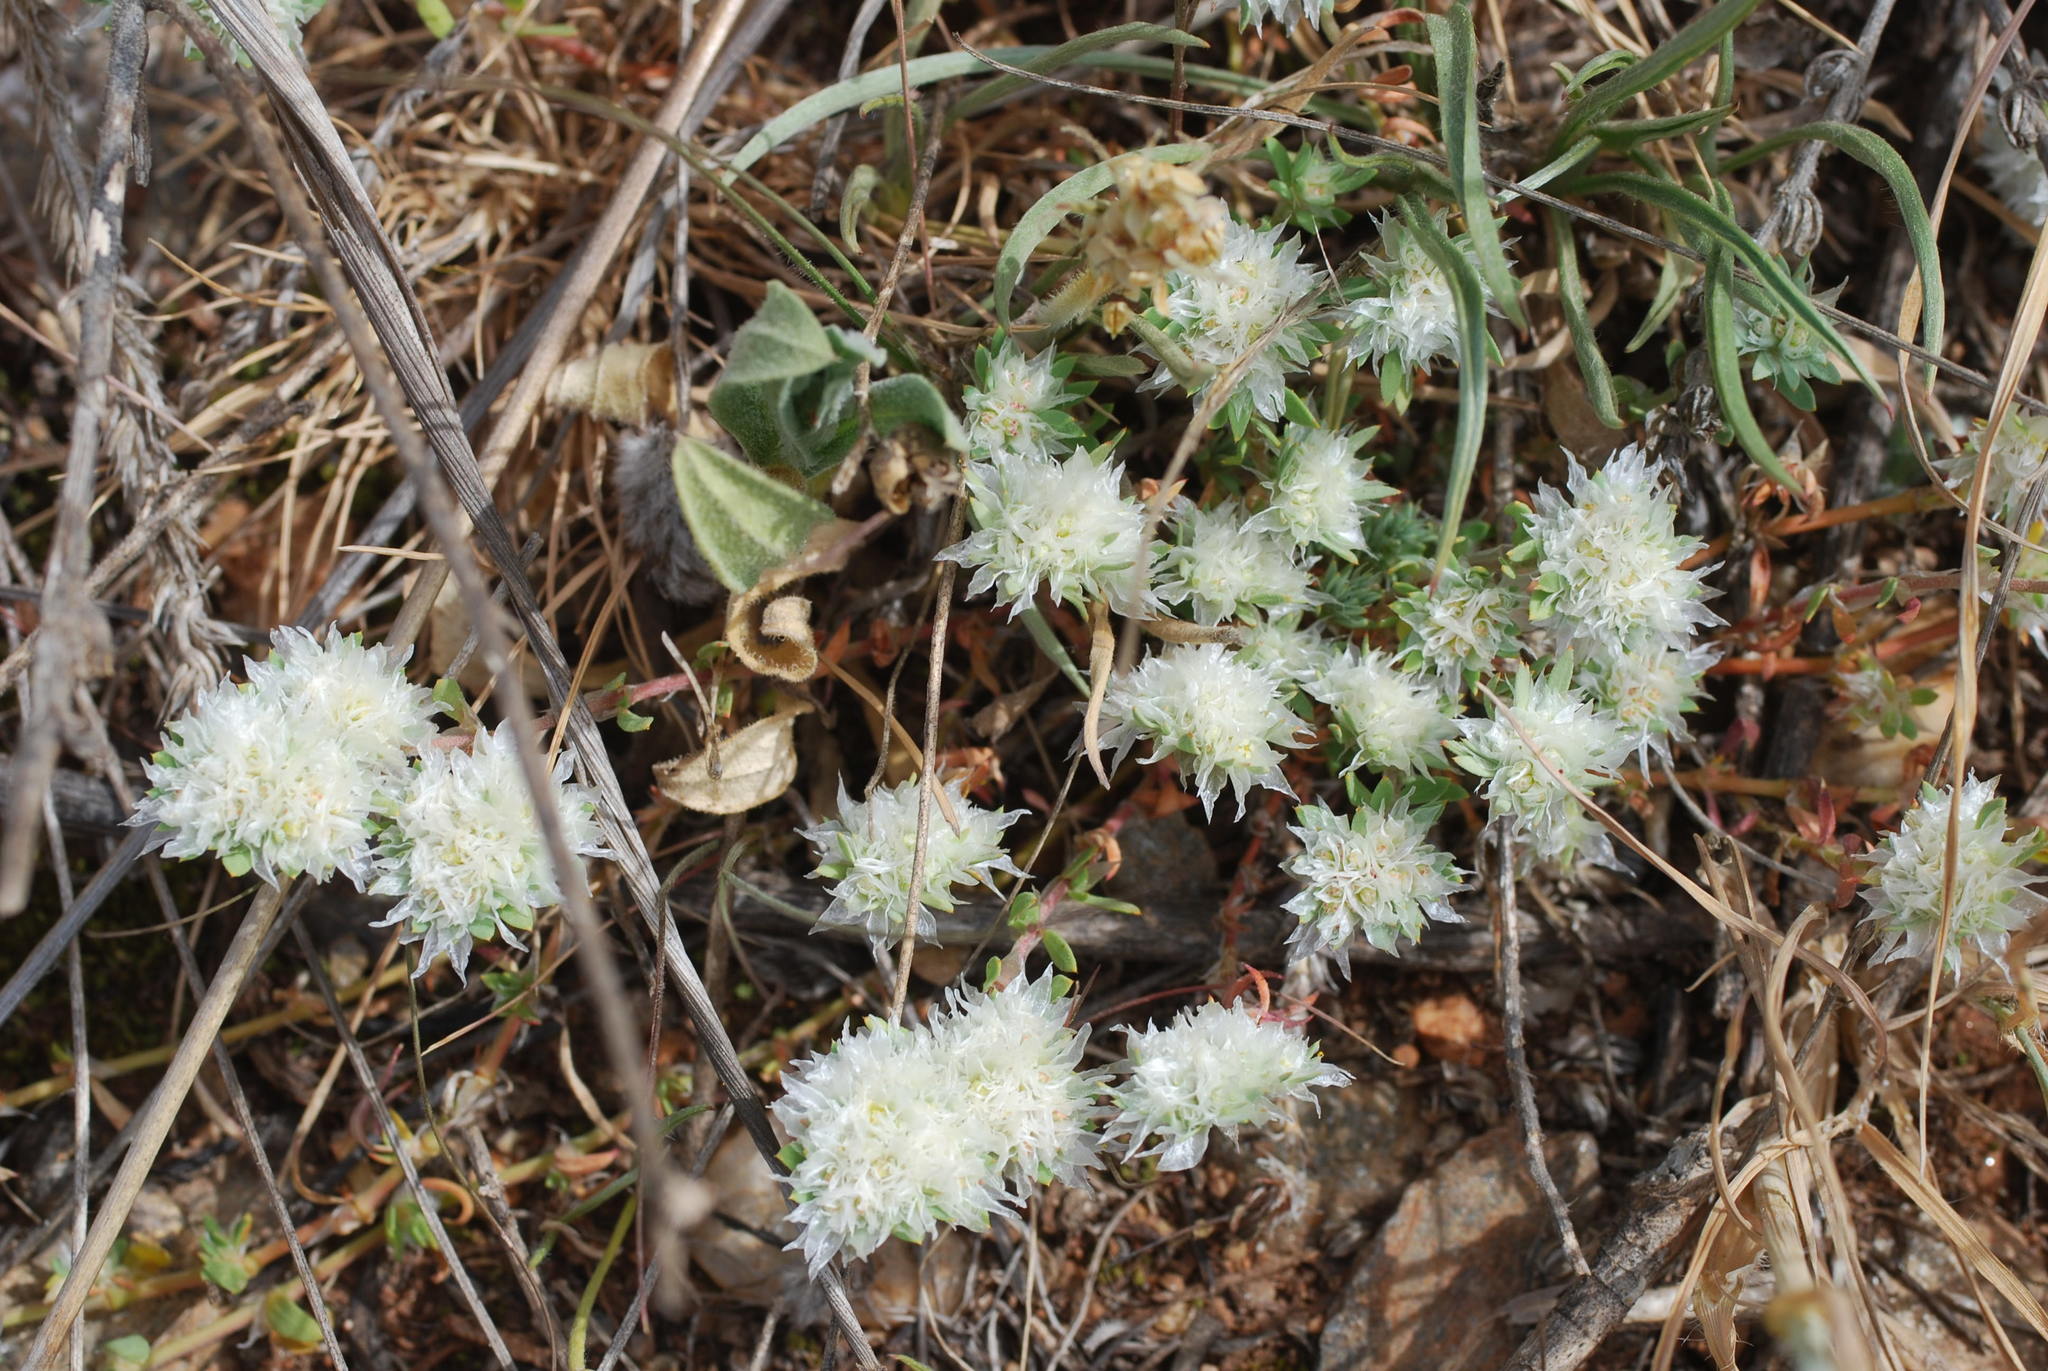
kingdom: Plantae
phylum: Tracheophyta
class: Magnoliopsida
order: Caryophyllales
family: Caryophyllaceae
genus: Paronychia
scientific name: Paronychia argentea
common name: Silver nailroot
